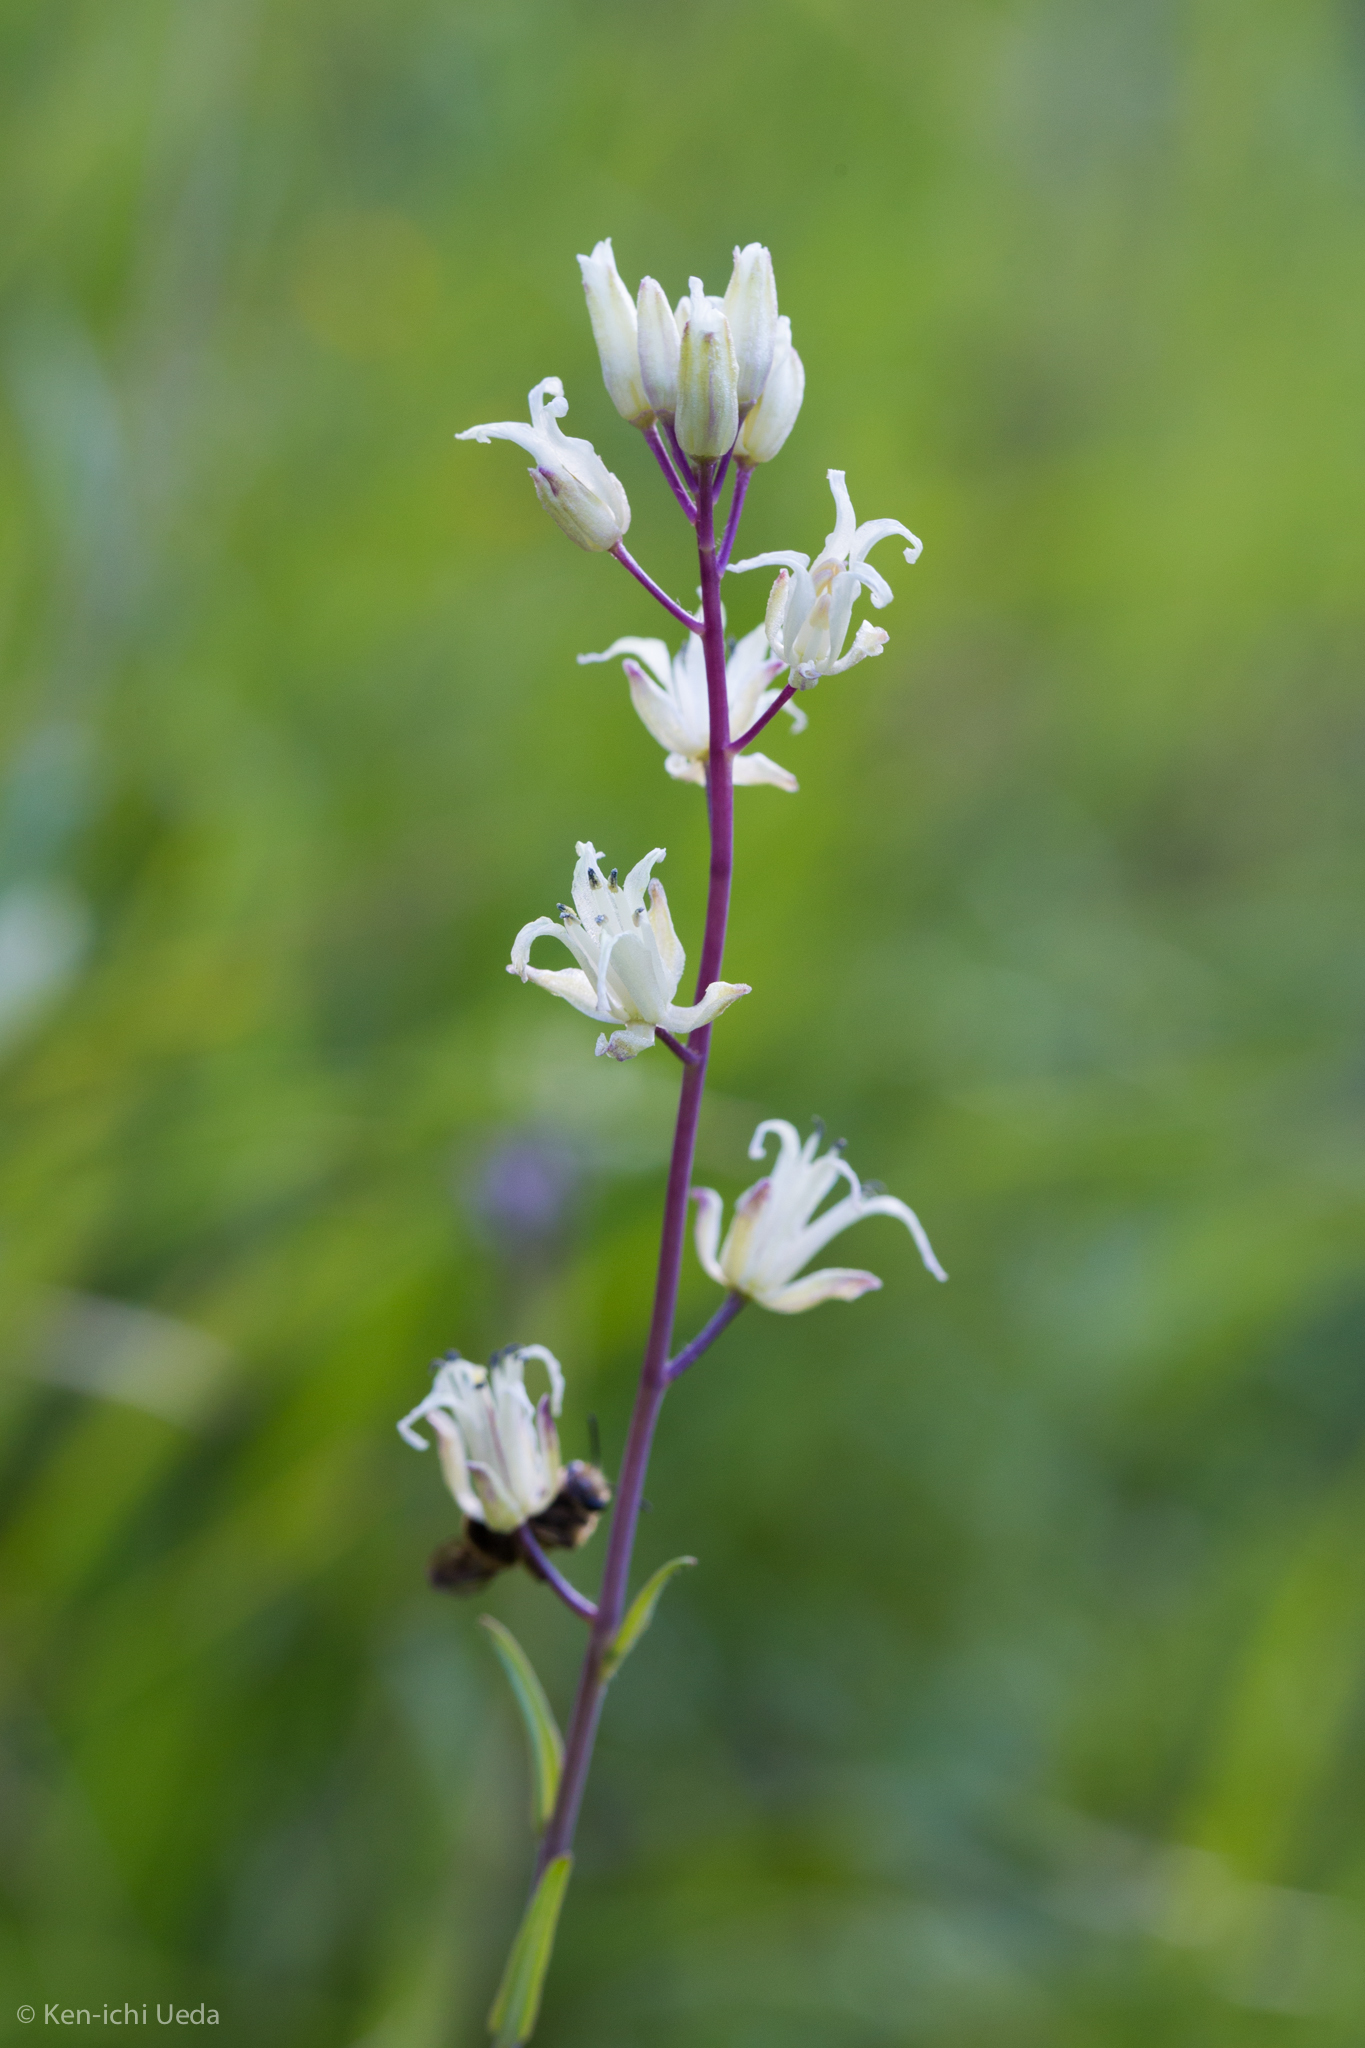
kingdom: Plantae
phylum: Tracheophyta
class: Magnoliopsida
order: Brassicales
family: Brassicaceae
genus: Streptanthus
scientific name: Streptanthus flavescens
